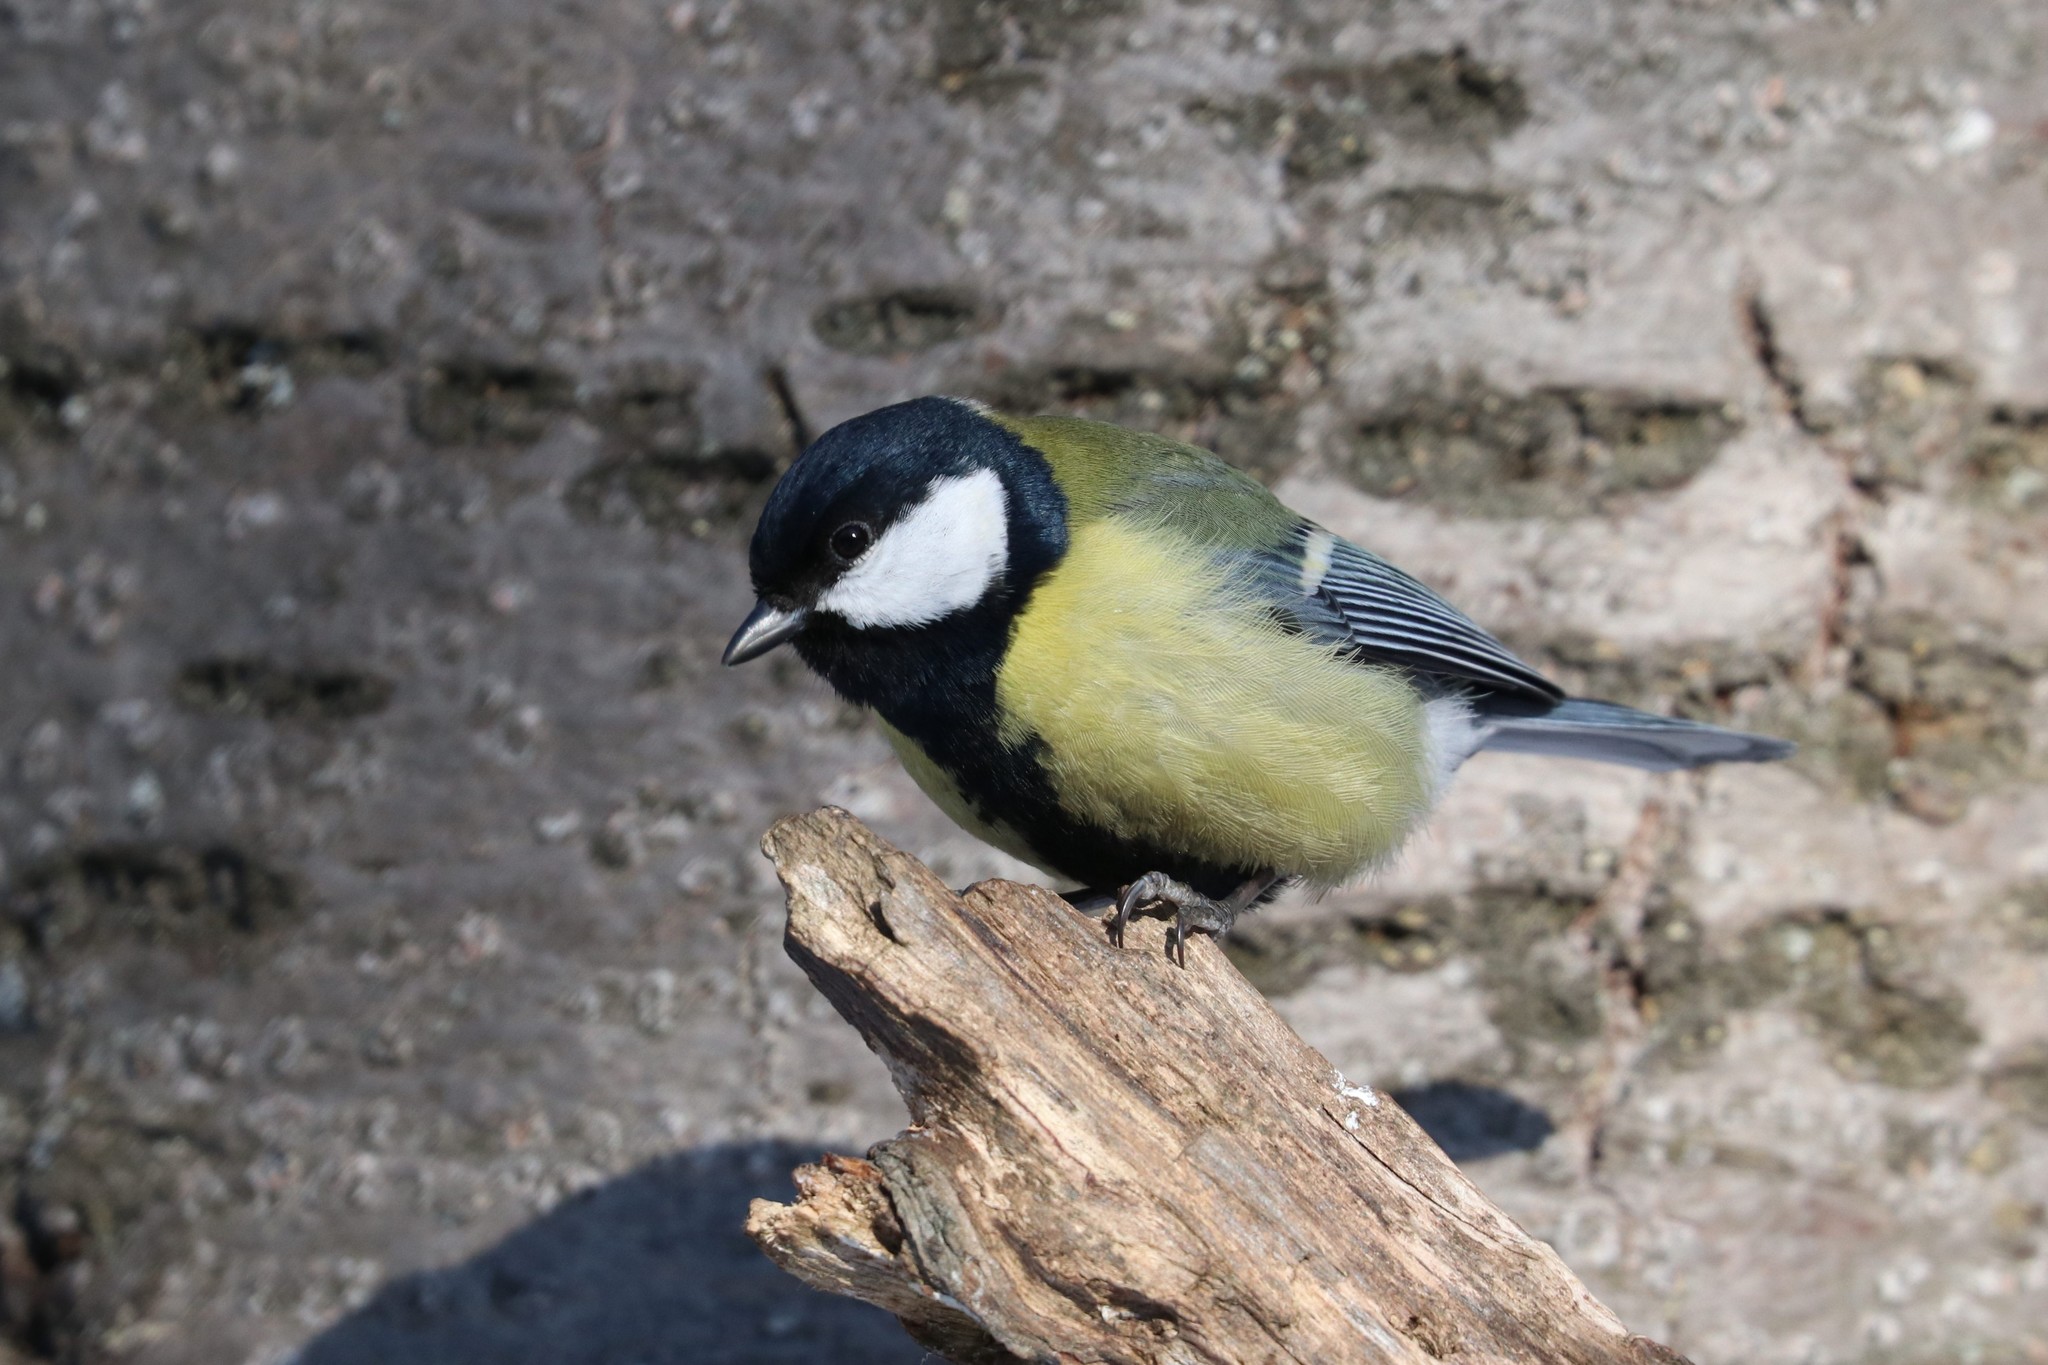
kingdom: Animalia
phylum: Chordata
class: Aves
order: Passeriformes
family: Paridae
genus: Parus
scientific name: Parus major
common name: Great tit
